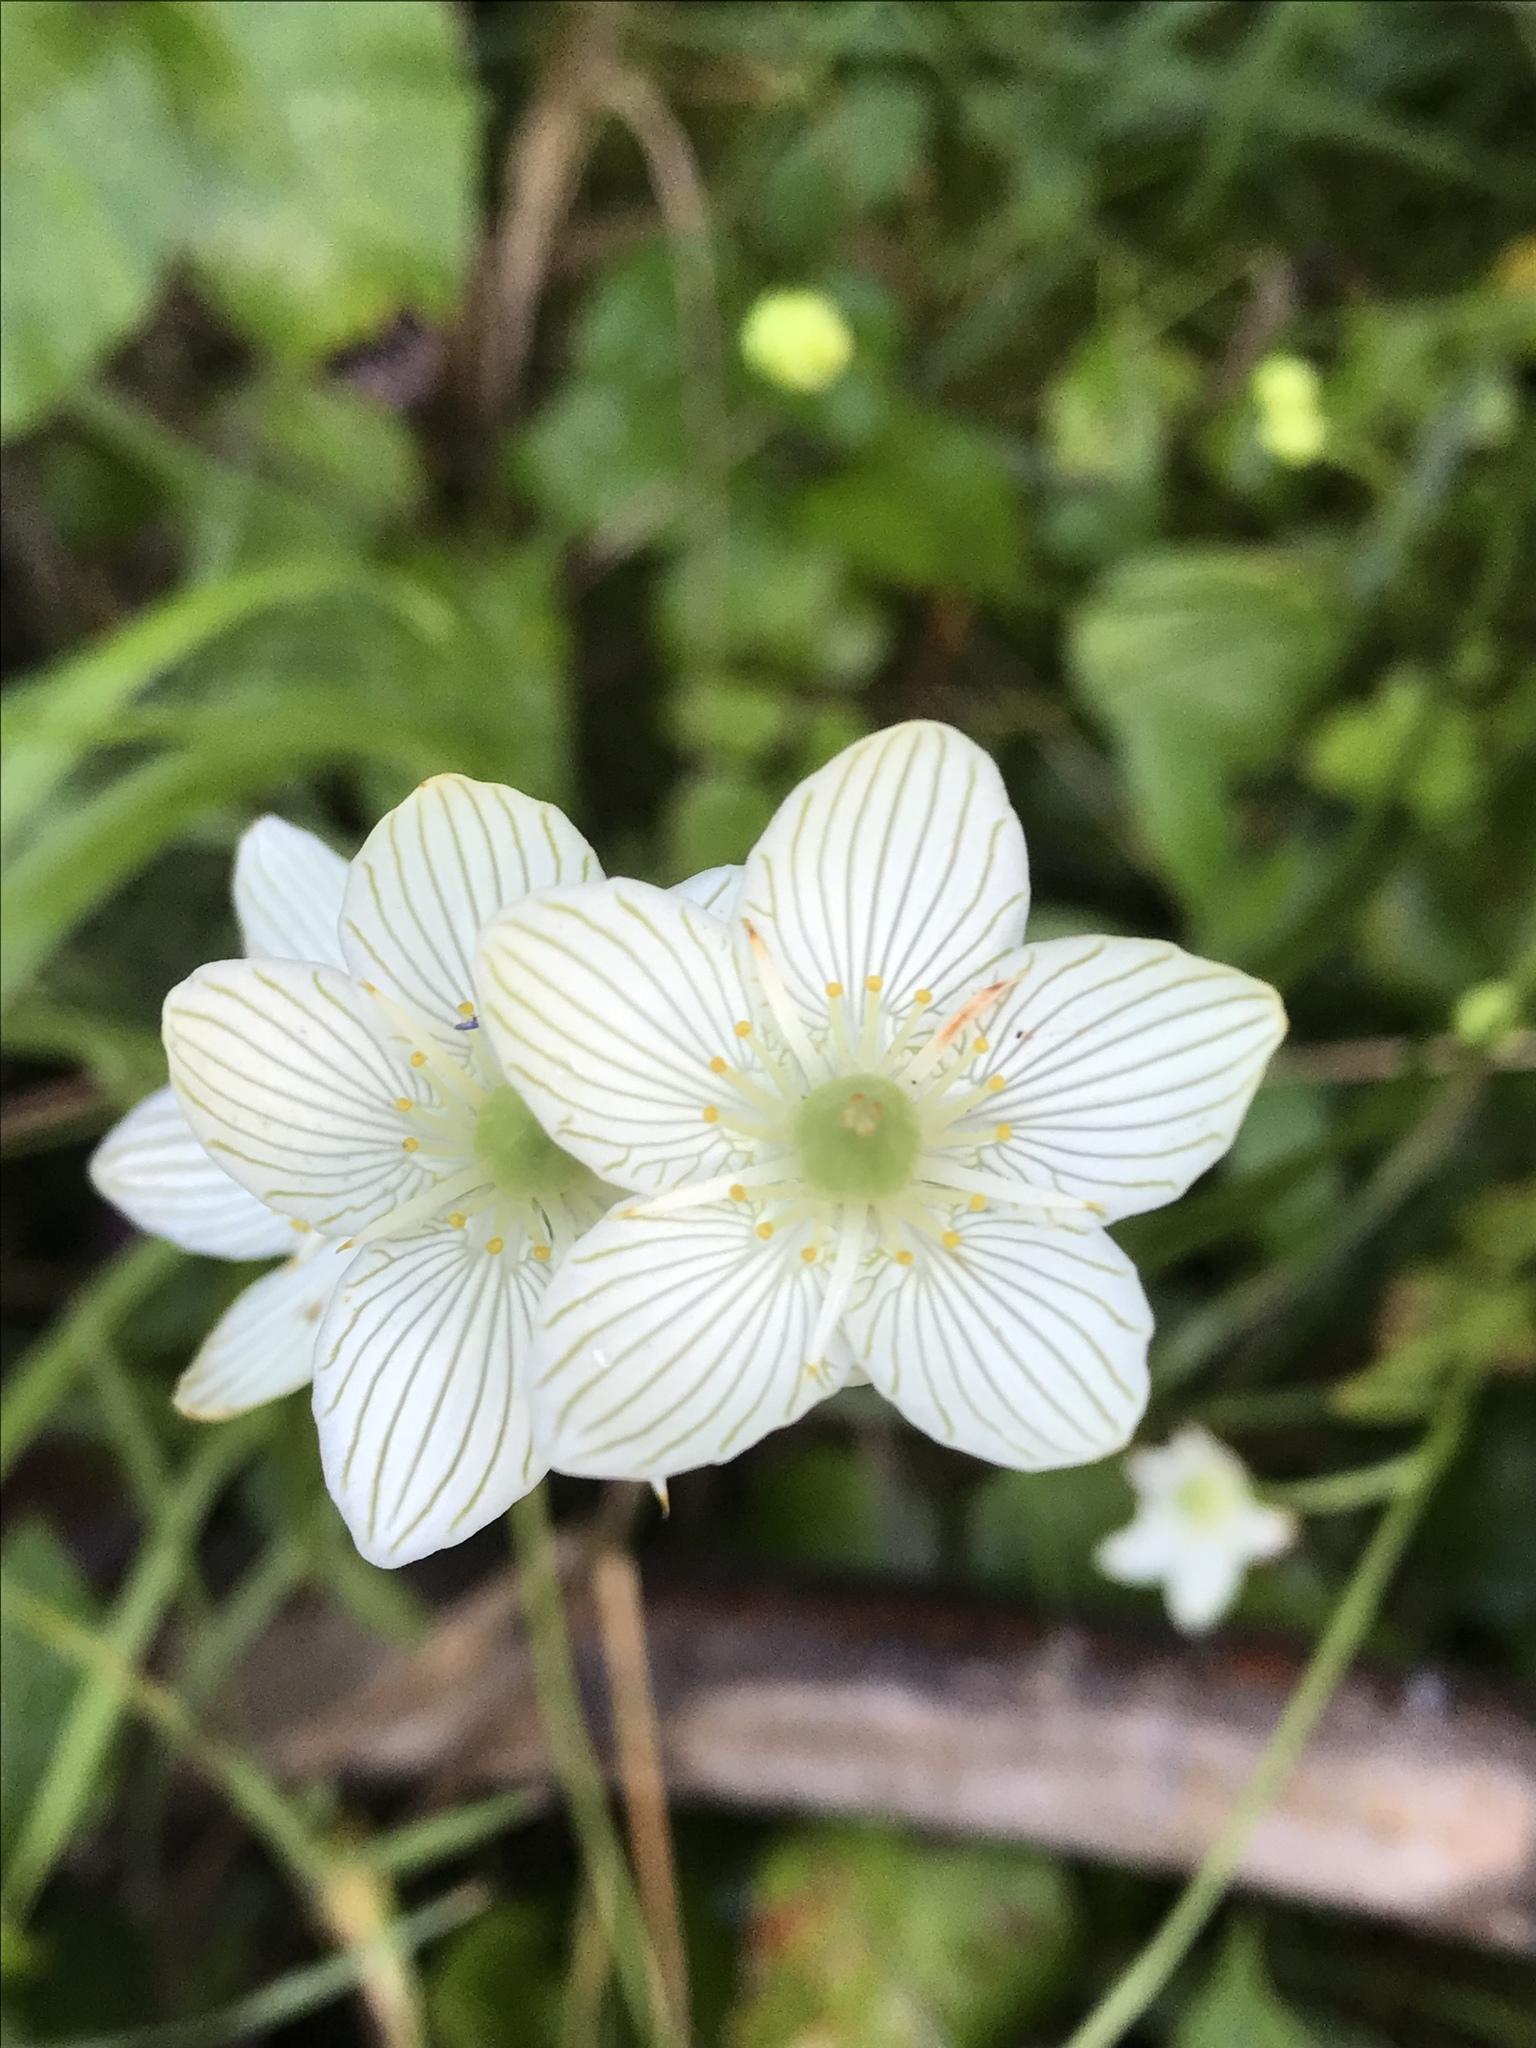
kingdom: Plantae
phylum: Tracheophyta
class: Magnoliopsida
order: Celastrales
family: Parnassiaceae
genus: Parnassia
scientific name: Parnassia glauca
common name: American grass-of-parnassus
